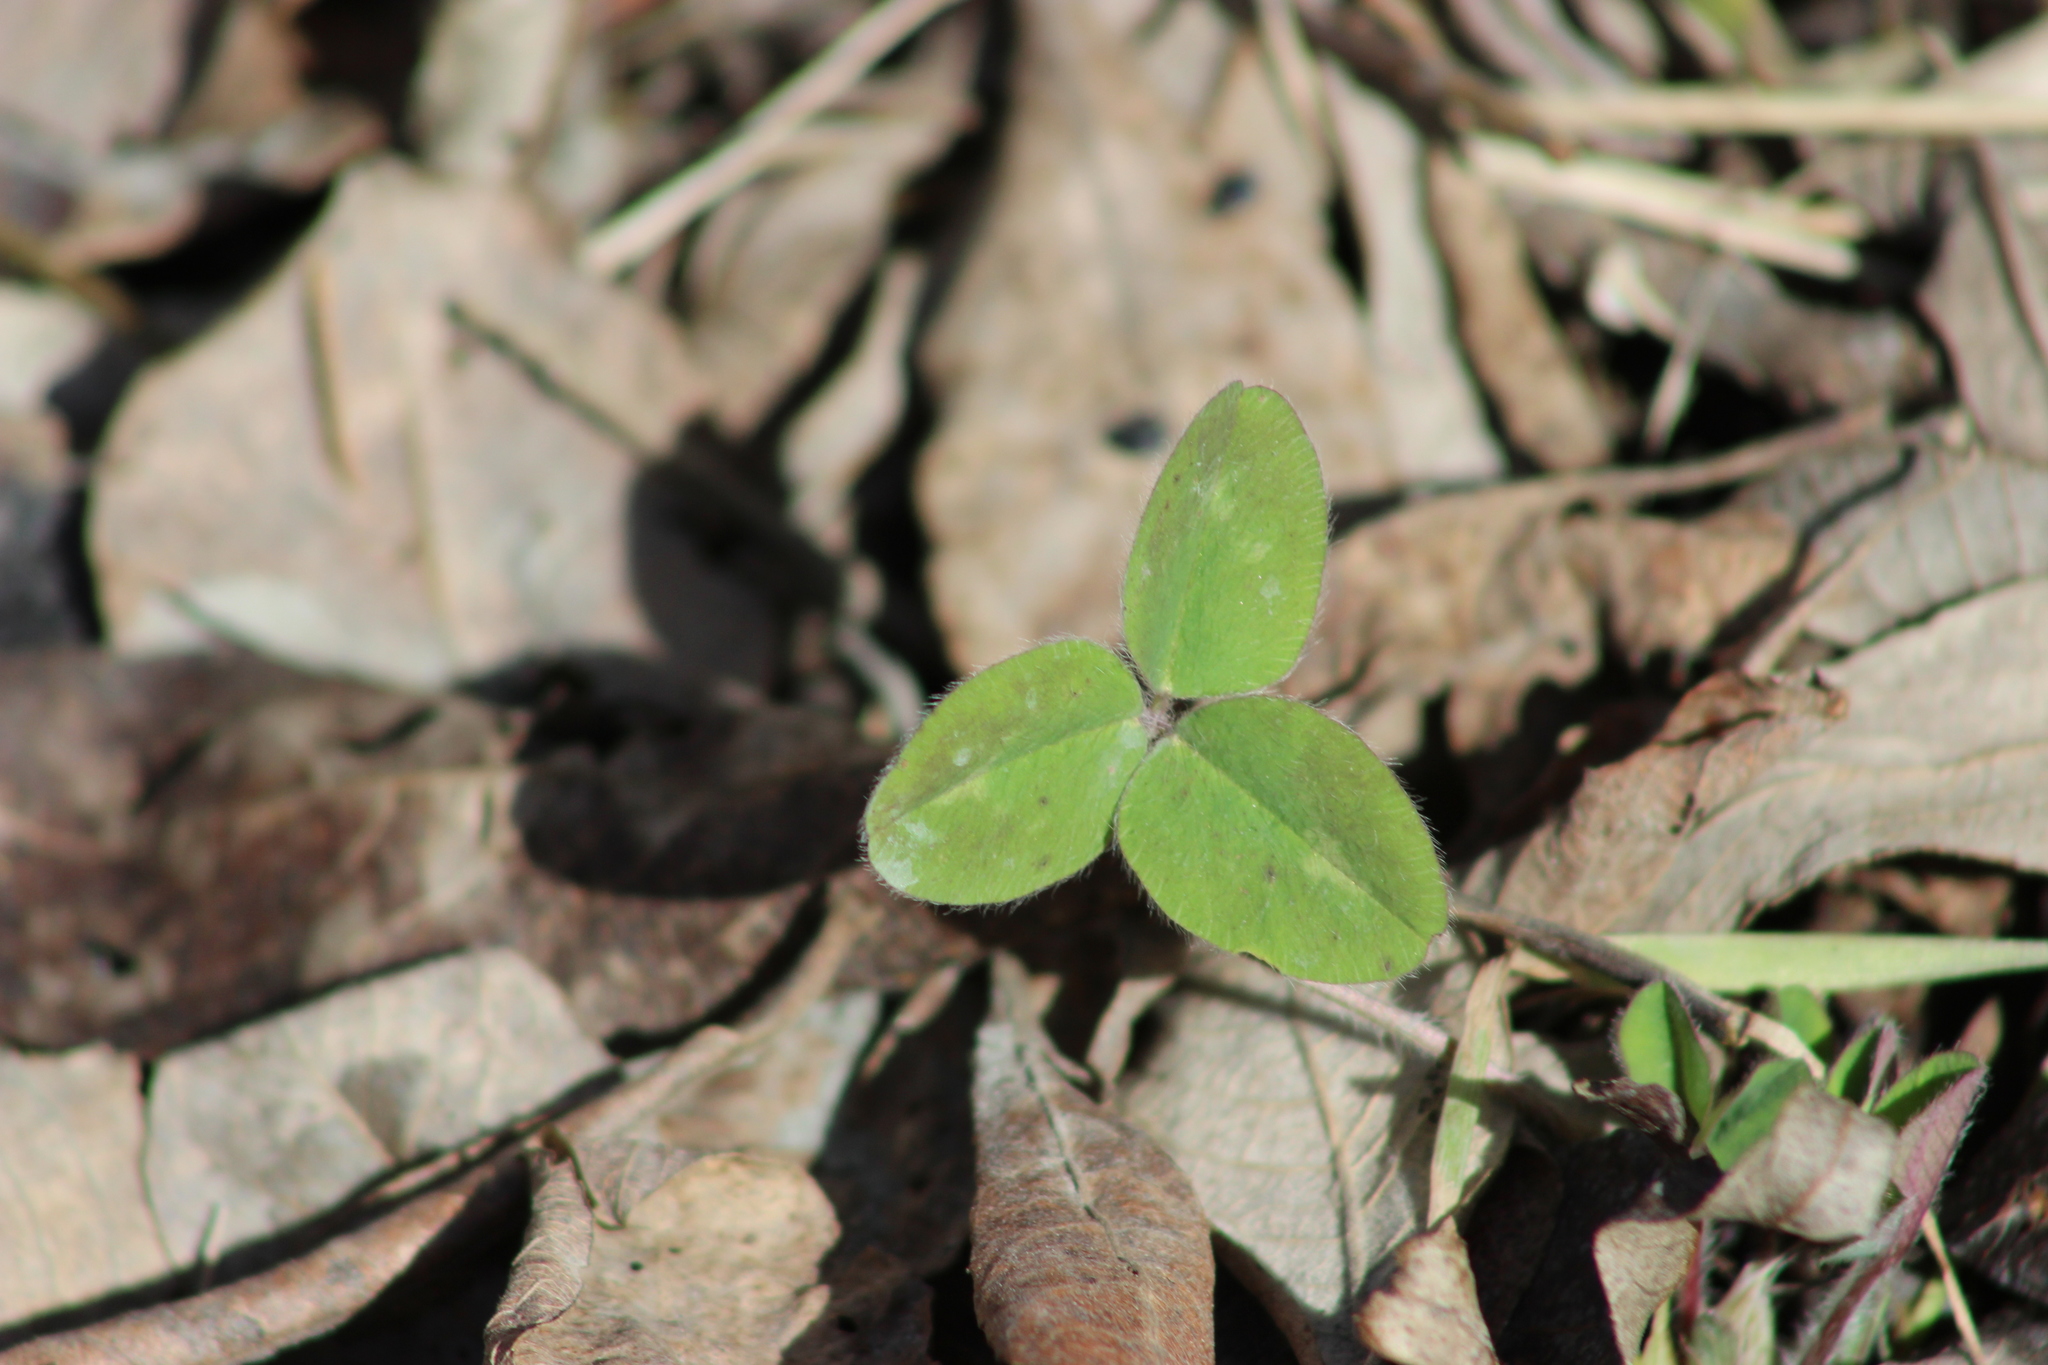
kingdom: Plantae
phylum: Tracheophyta
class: Magnoliopsida
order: Fabales
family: Fabaceae
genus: Trifolium
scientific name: Trifolium pratense
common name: Red clover
